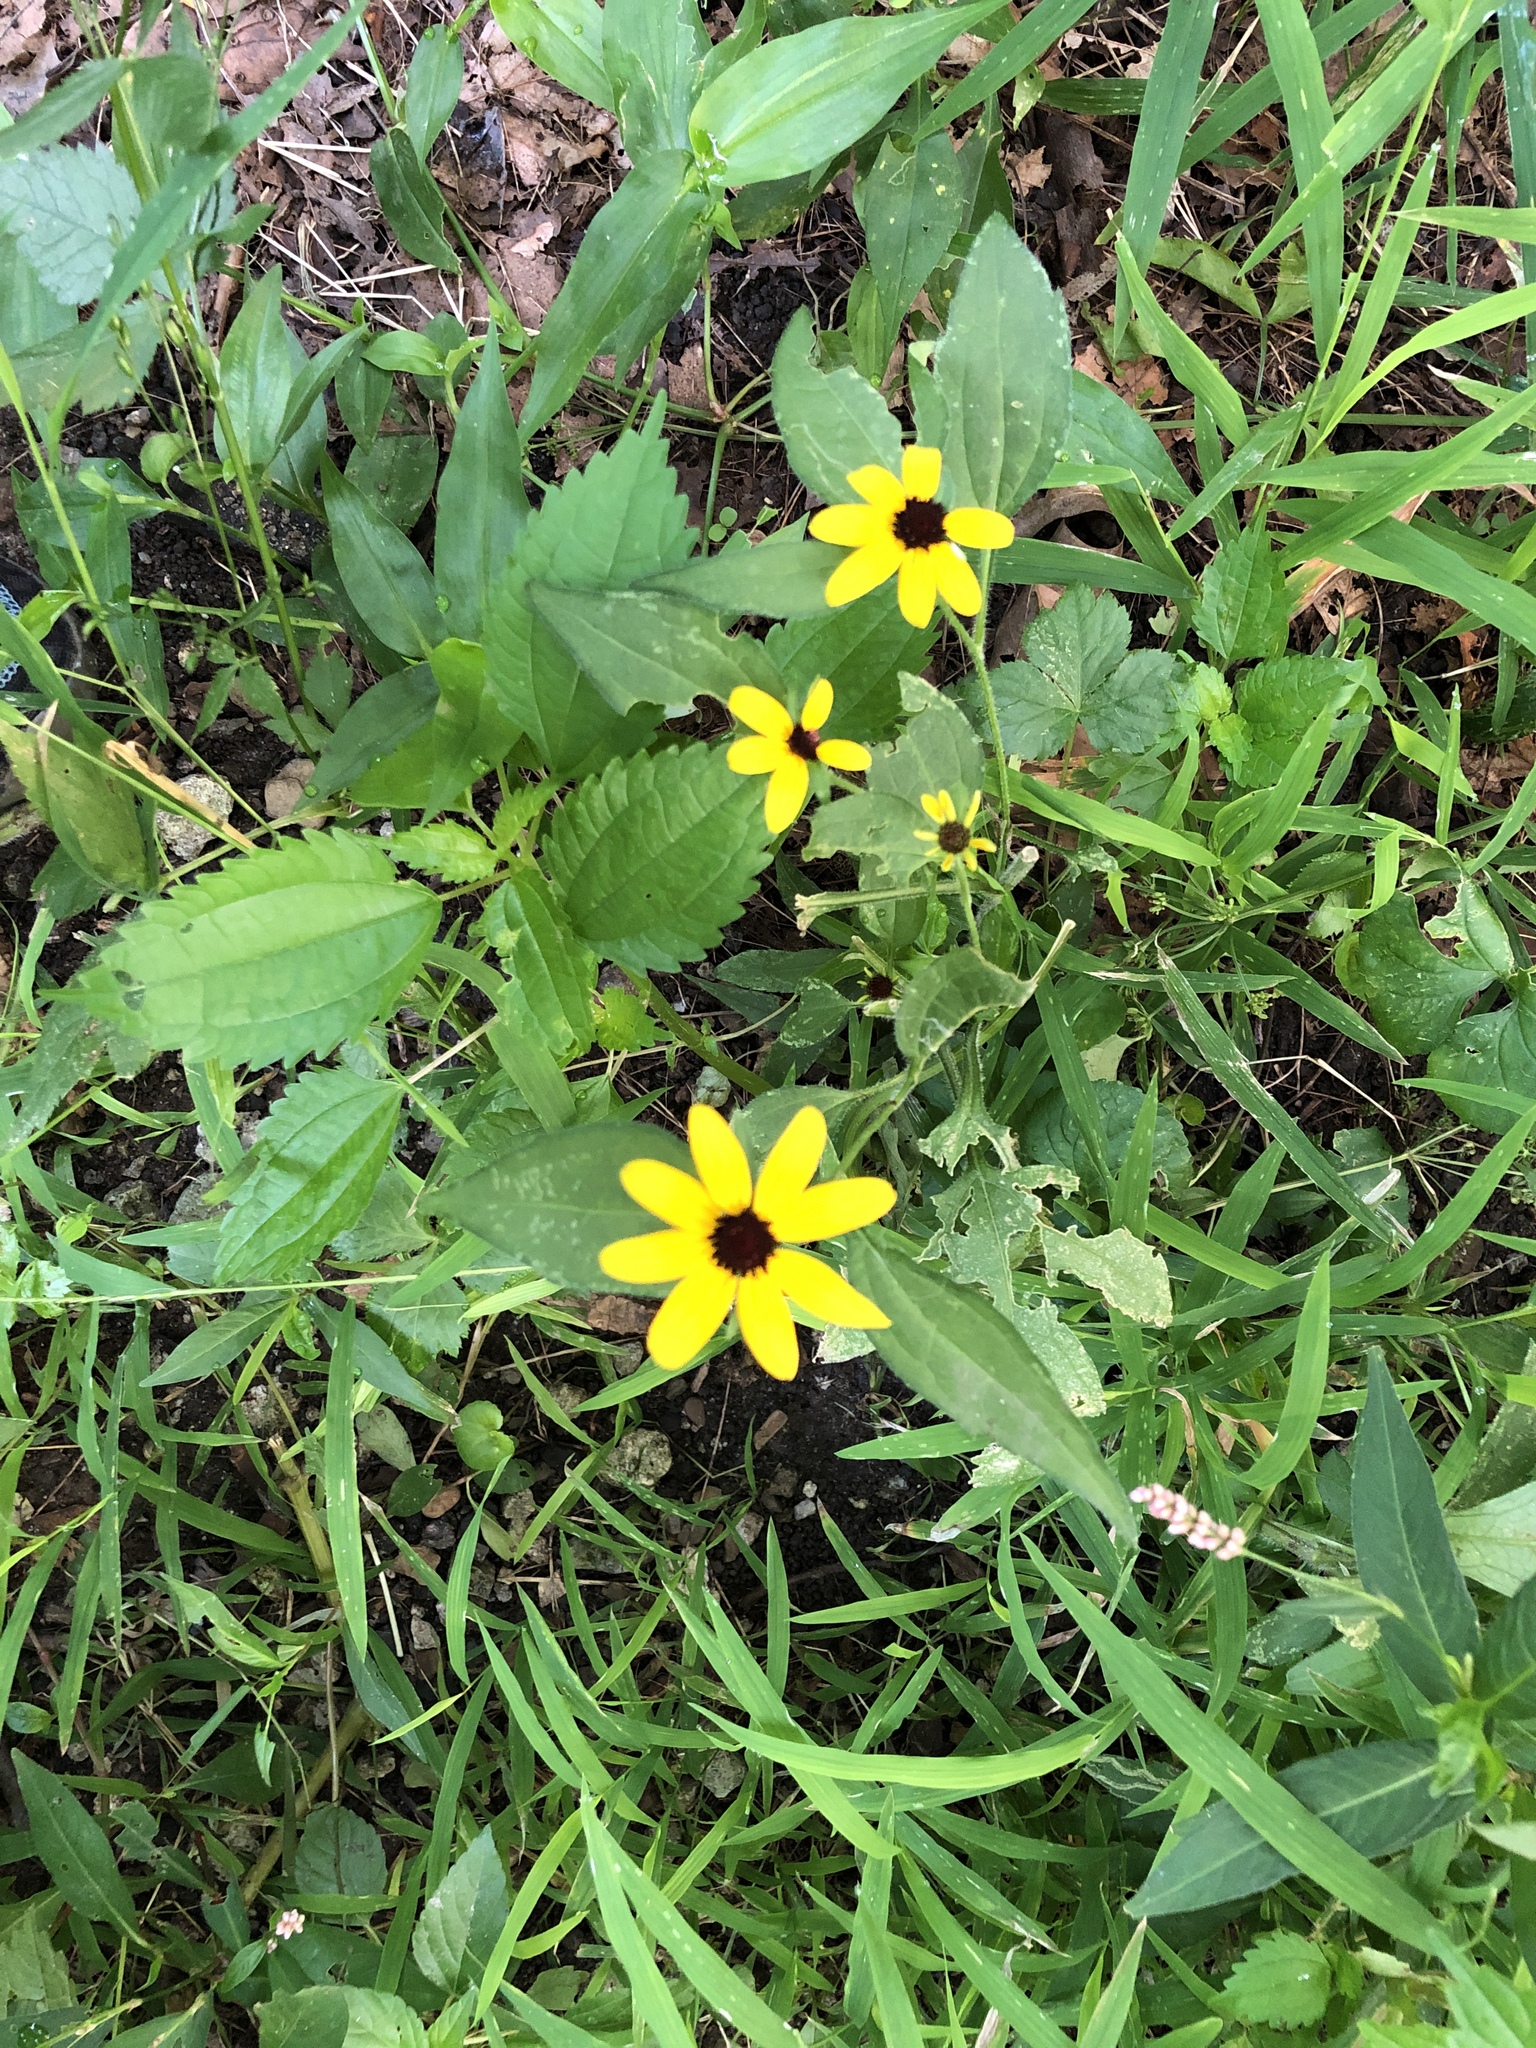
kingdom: Plantae
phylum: Tracheophyta
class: Magnoliopsida
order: Asterales
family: Asteraceae
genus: Rudbeckia
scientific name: Rudbeckia hirta
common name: Black-eyed-susan
